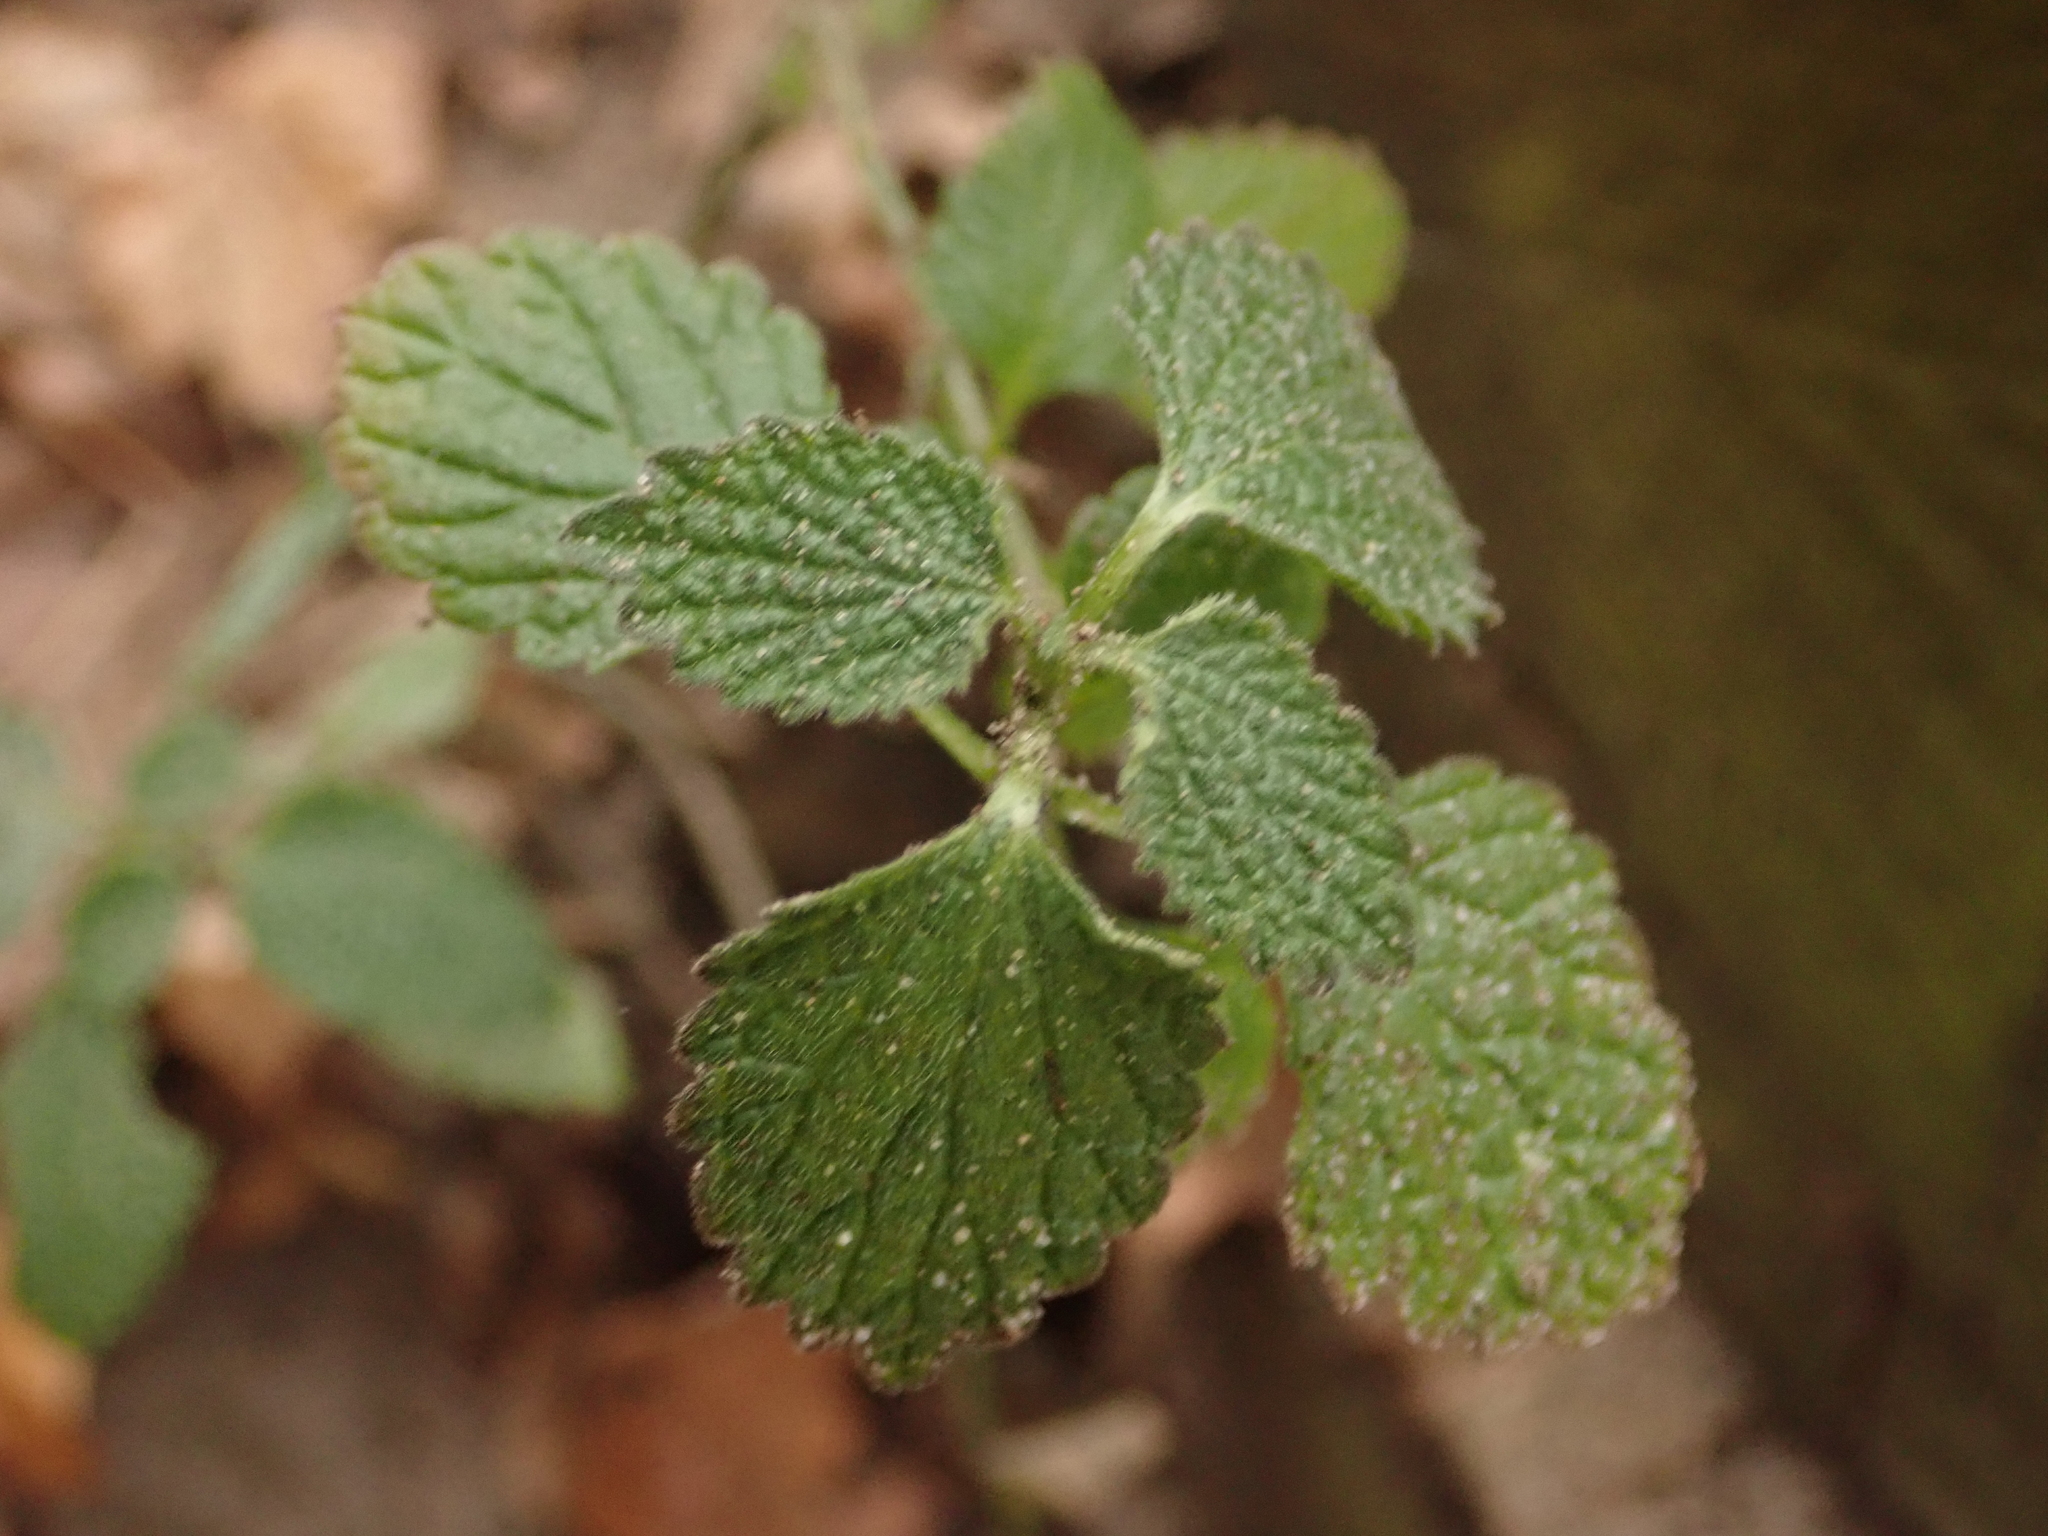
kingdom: Plantae
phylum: Tracheophyta
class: Magnoliopsida
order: Lamiales
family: Lamiaceae
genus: Ballota
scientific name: Ballota nigra
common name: Black horehound
